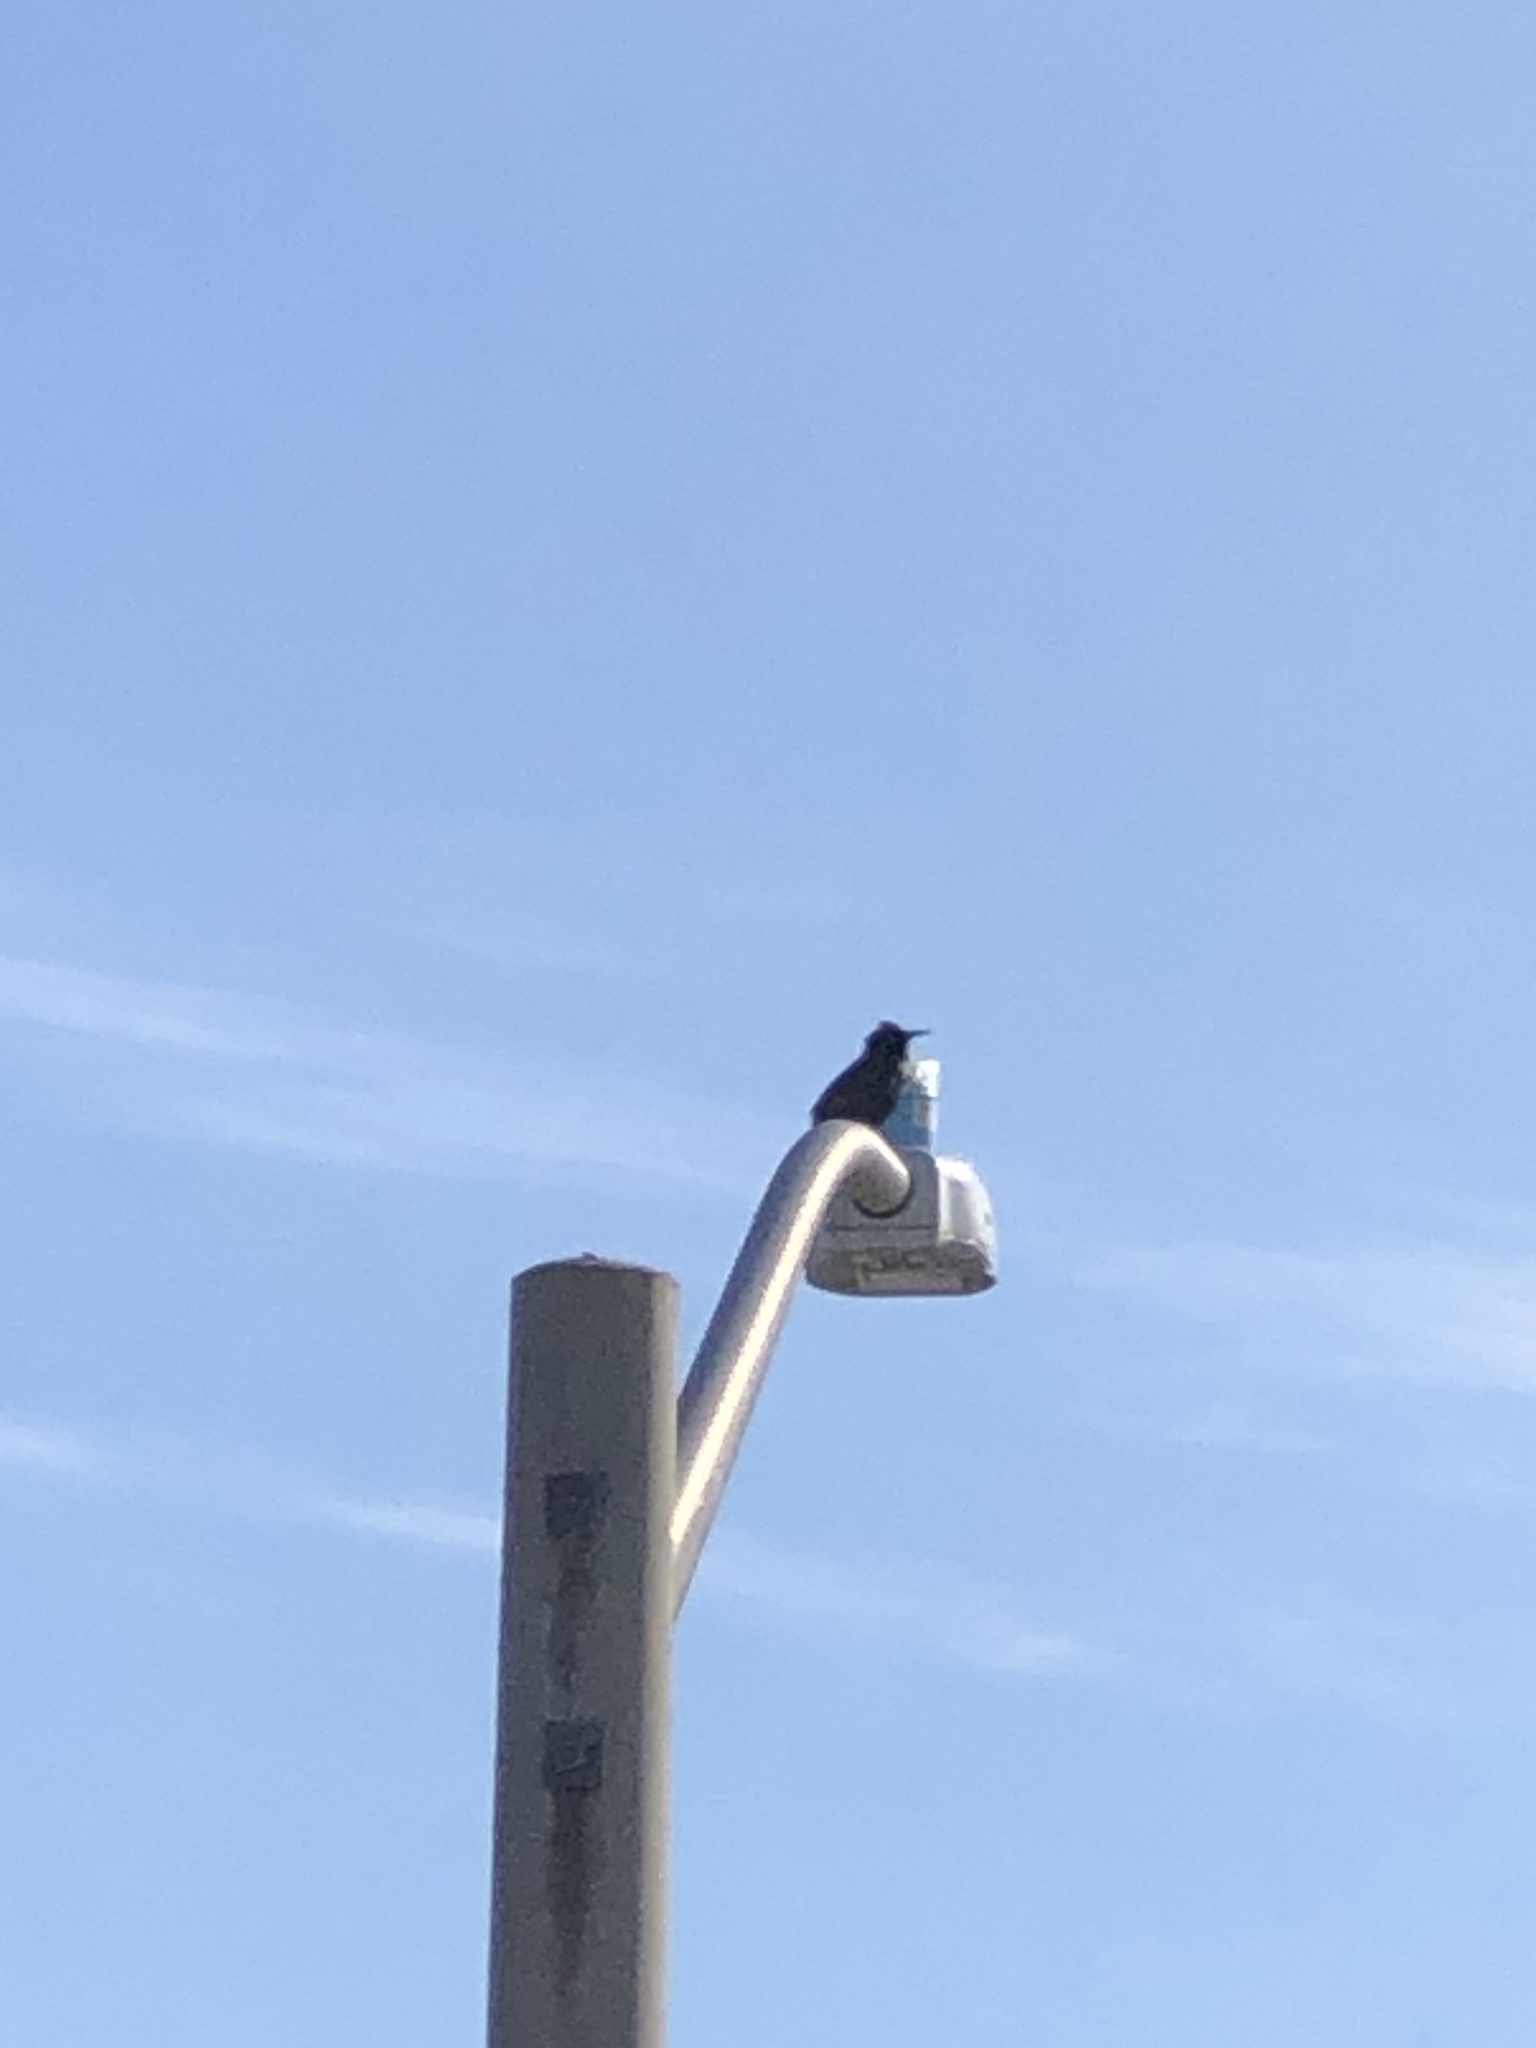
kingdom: Animalia
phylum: Chordata
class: Aves
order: Passeriformes
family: Sturnidae
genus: Sturnus
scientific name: Sturnus vulgaris
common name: Common starling
